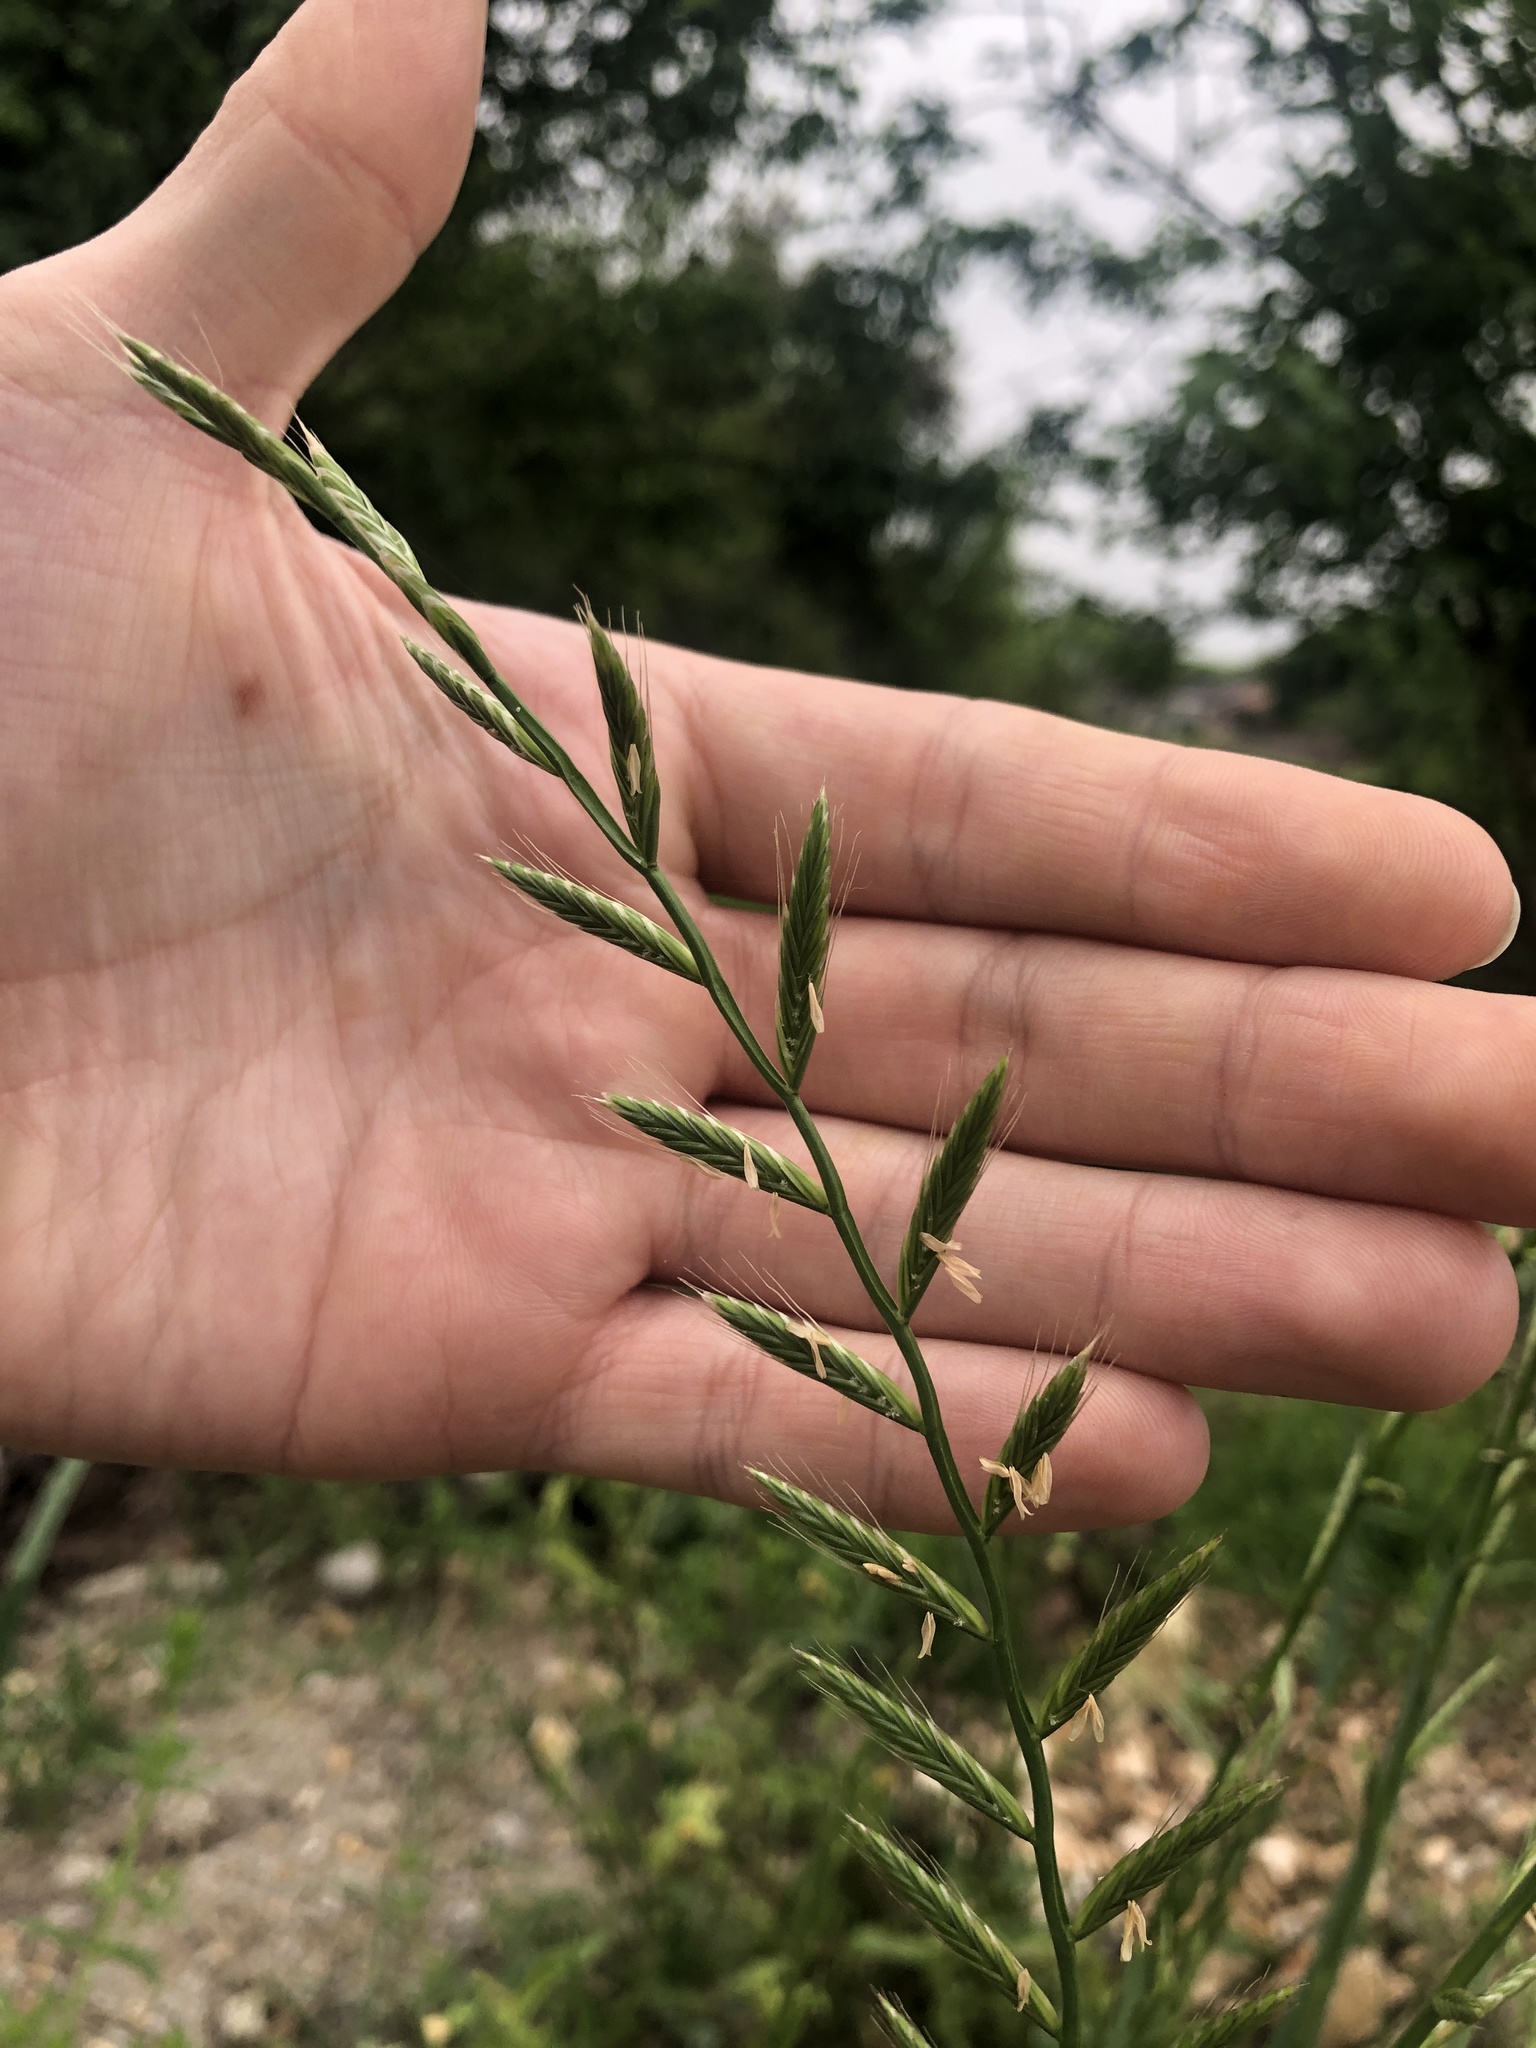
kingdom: Plantae
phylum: Tracheophyta
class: Liliopsida
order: Poales
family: Poaceae
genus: Lolium
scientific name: Lolium perenne
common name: Perennial ryegrass
